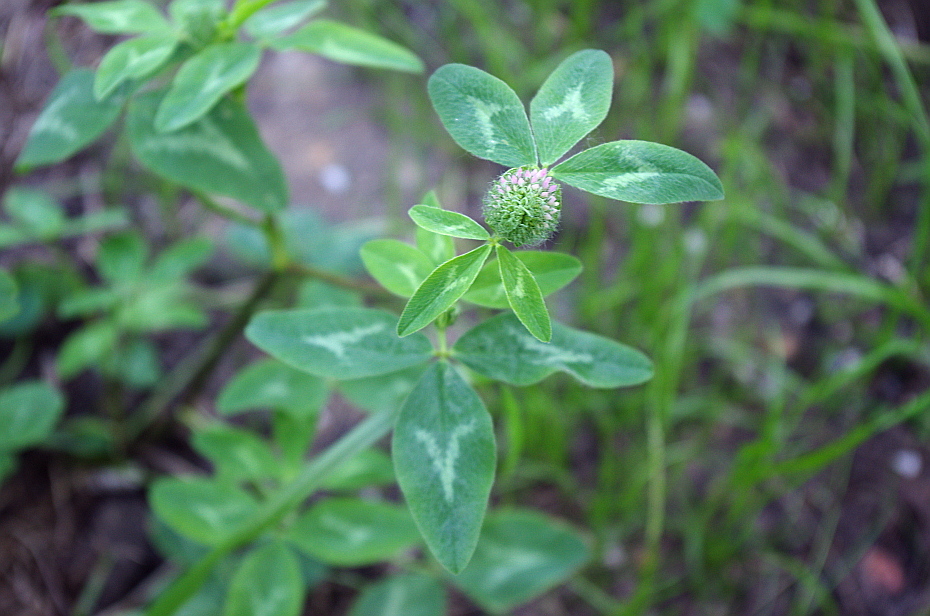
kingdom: Plantae
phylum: Tracheophyta
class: Magnoliopsida
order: Fabales
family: Fabaceae
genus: Trifolium
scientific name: Trifolium pratense
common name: Red clover
